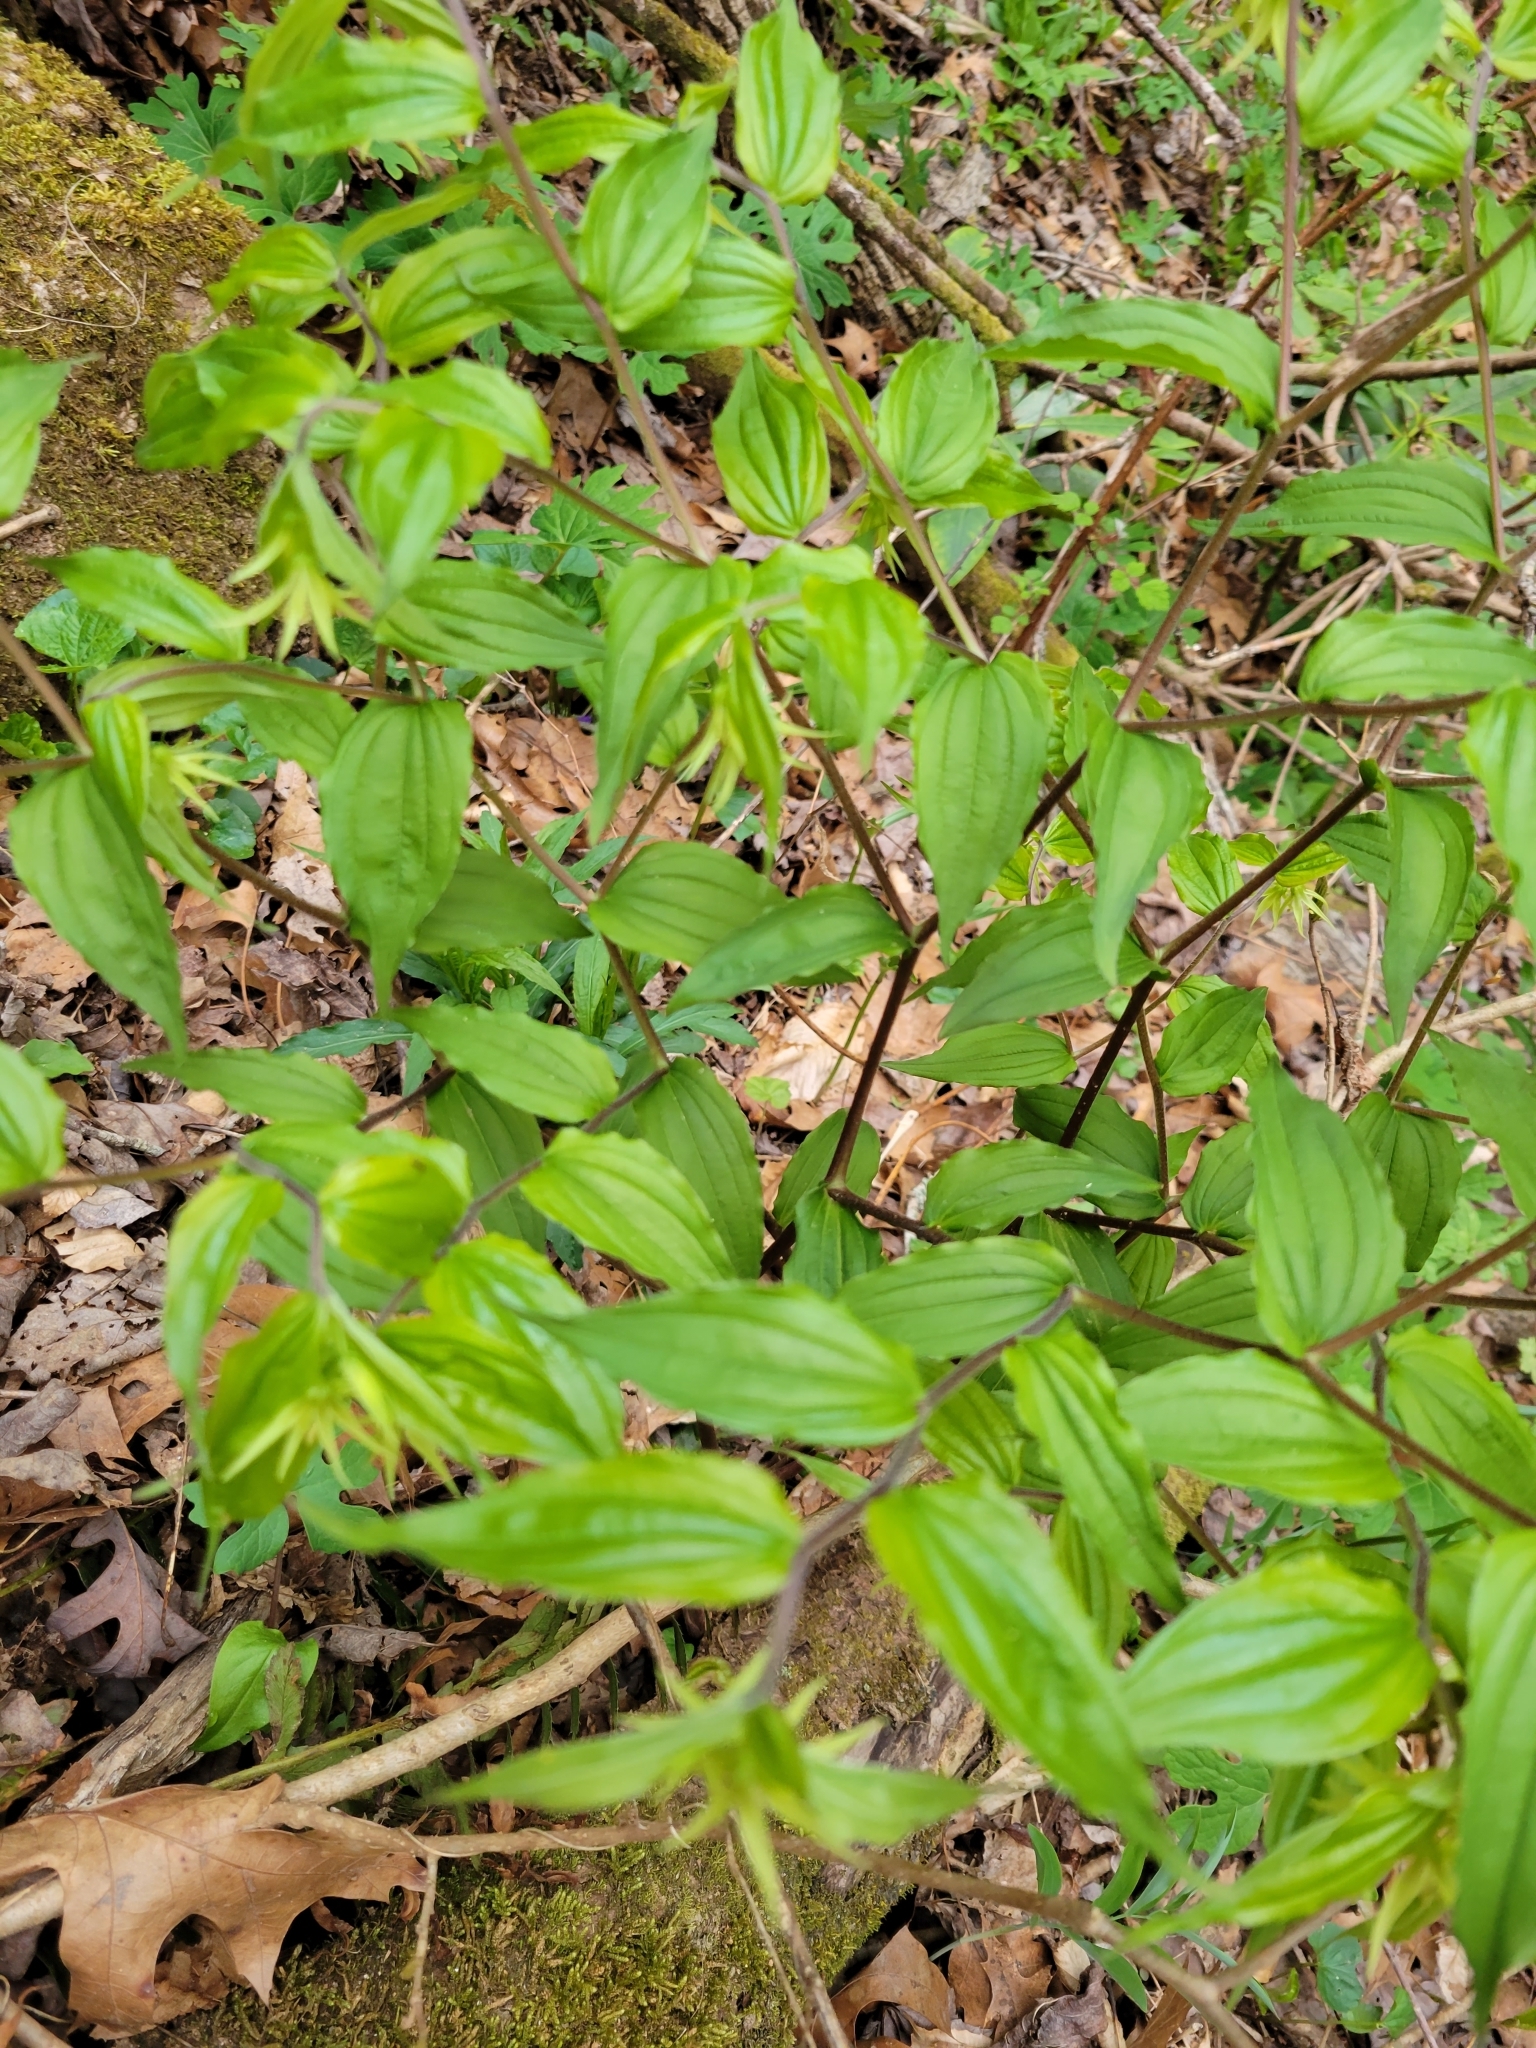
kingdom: Plantae
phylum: Tracheophyta
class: Liliopsida
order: Liliales
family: Liliaceae
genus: Prosartes
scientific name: Prosartes lanuginosa
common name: Hairy mandarin
